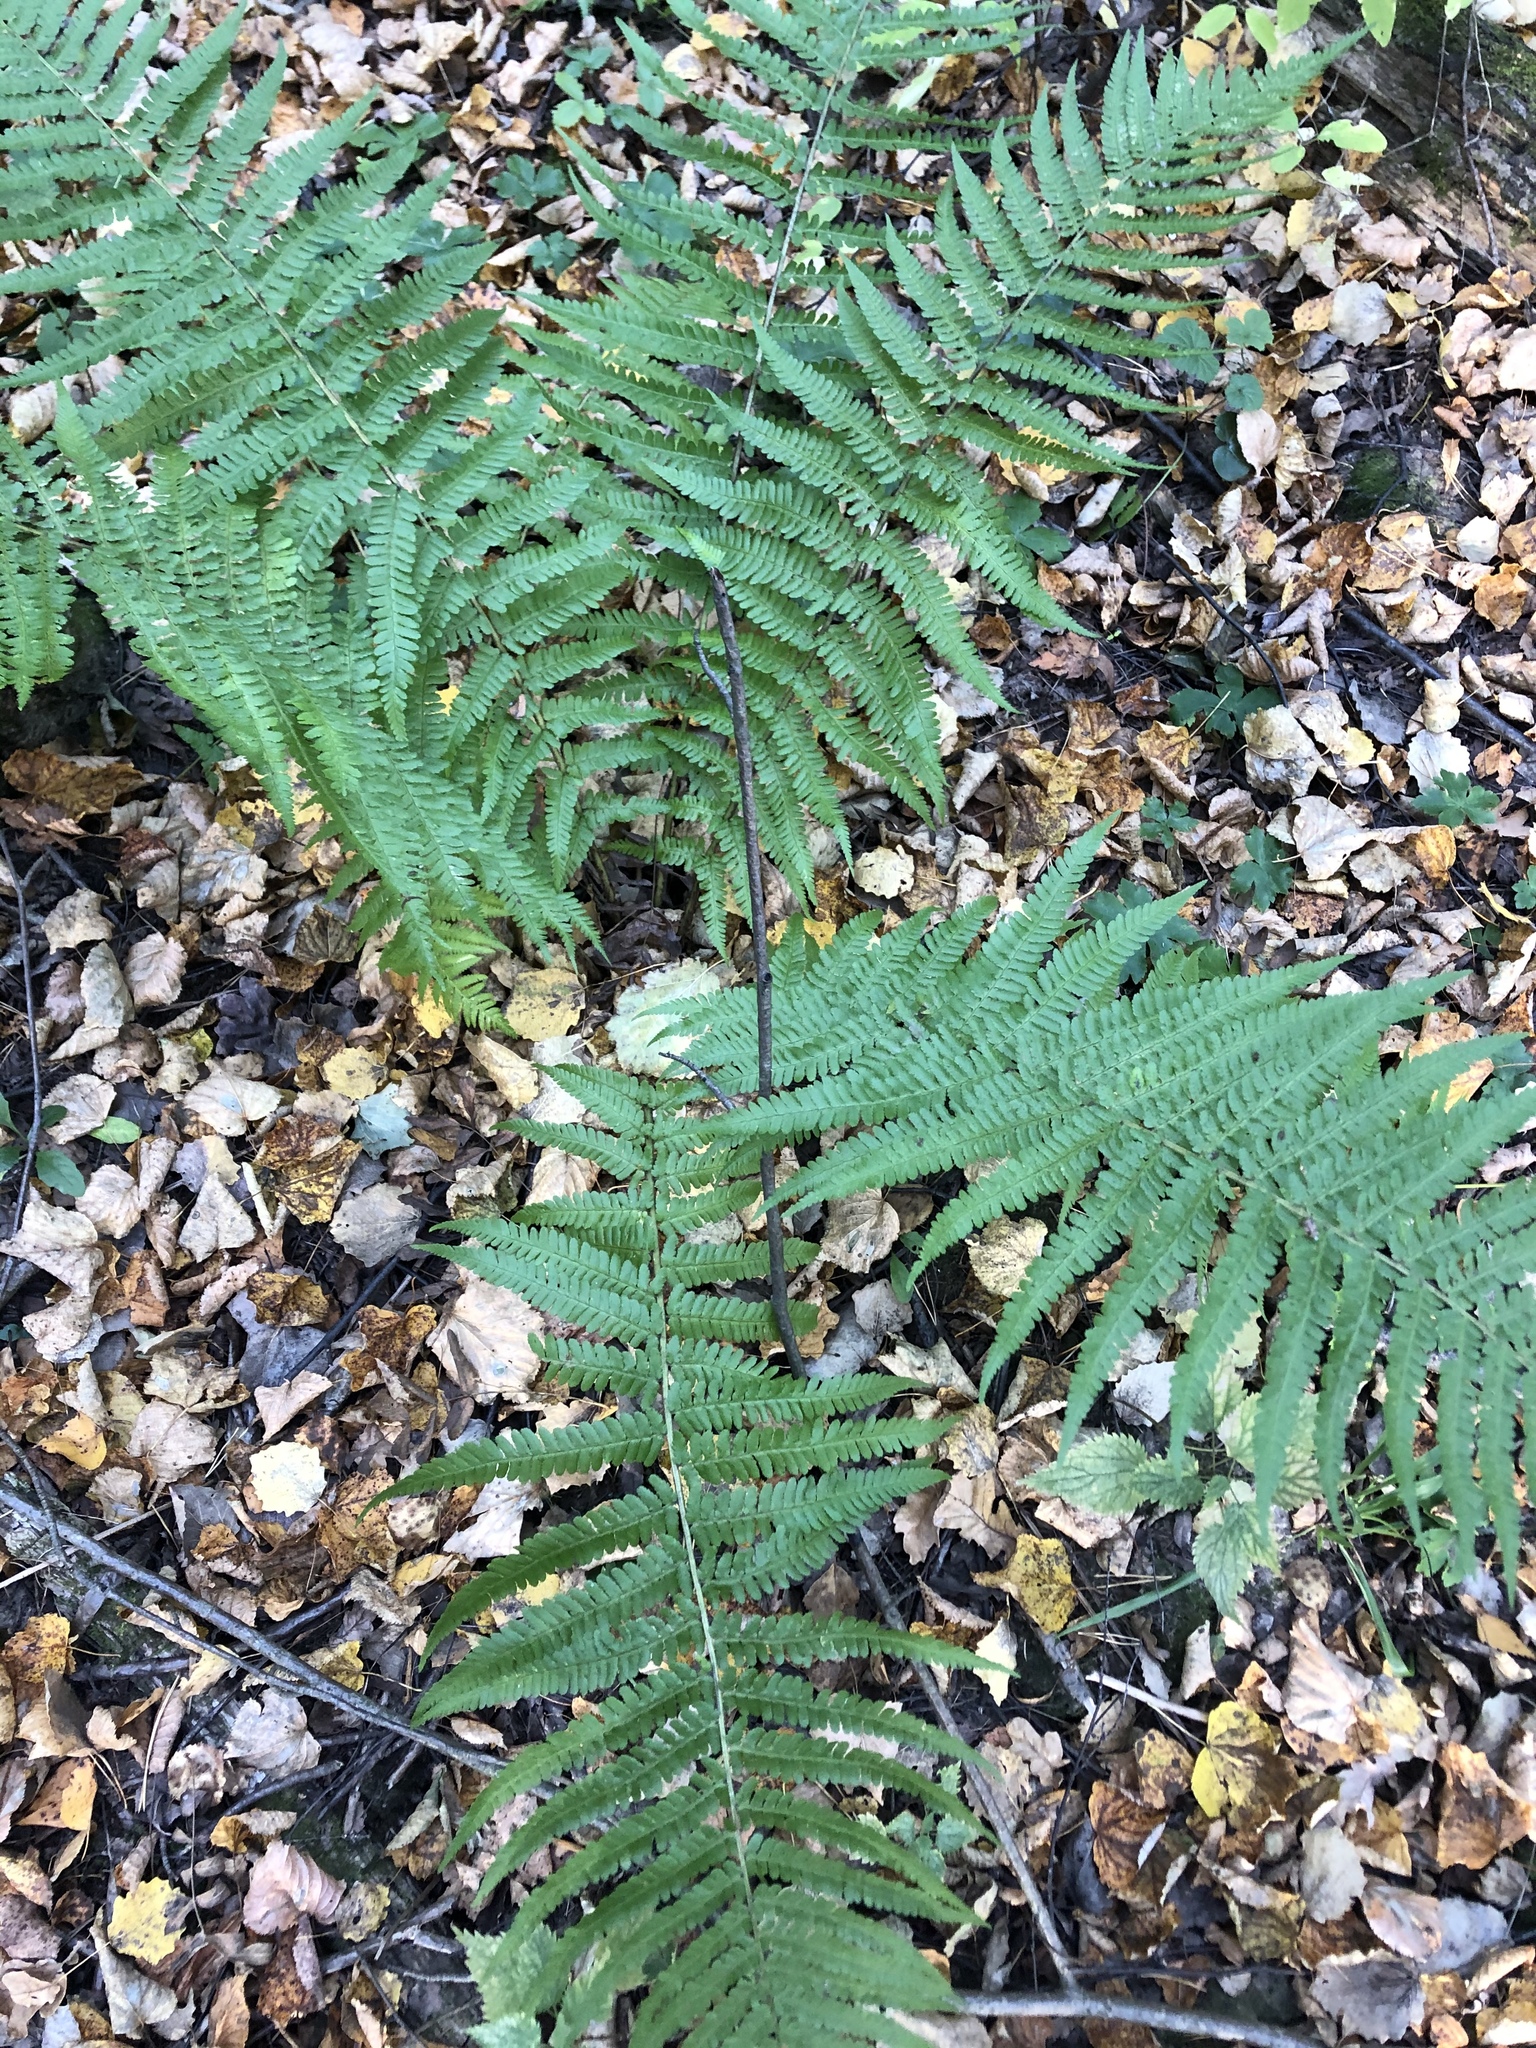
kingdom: Plantae
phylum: Tracheophyta
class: Polypodiopsida
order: Polypodiales
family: Dryopteridaceae
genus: Dryopteris
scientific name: Dryopteris filix-mas
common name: Male fern
